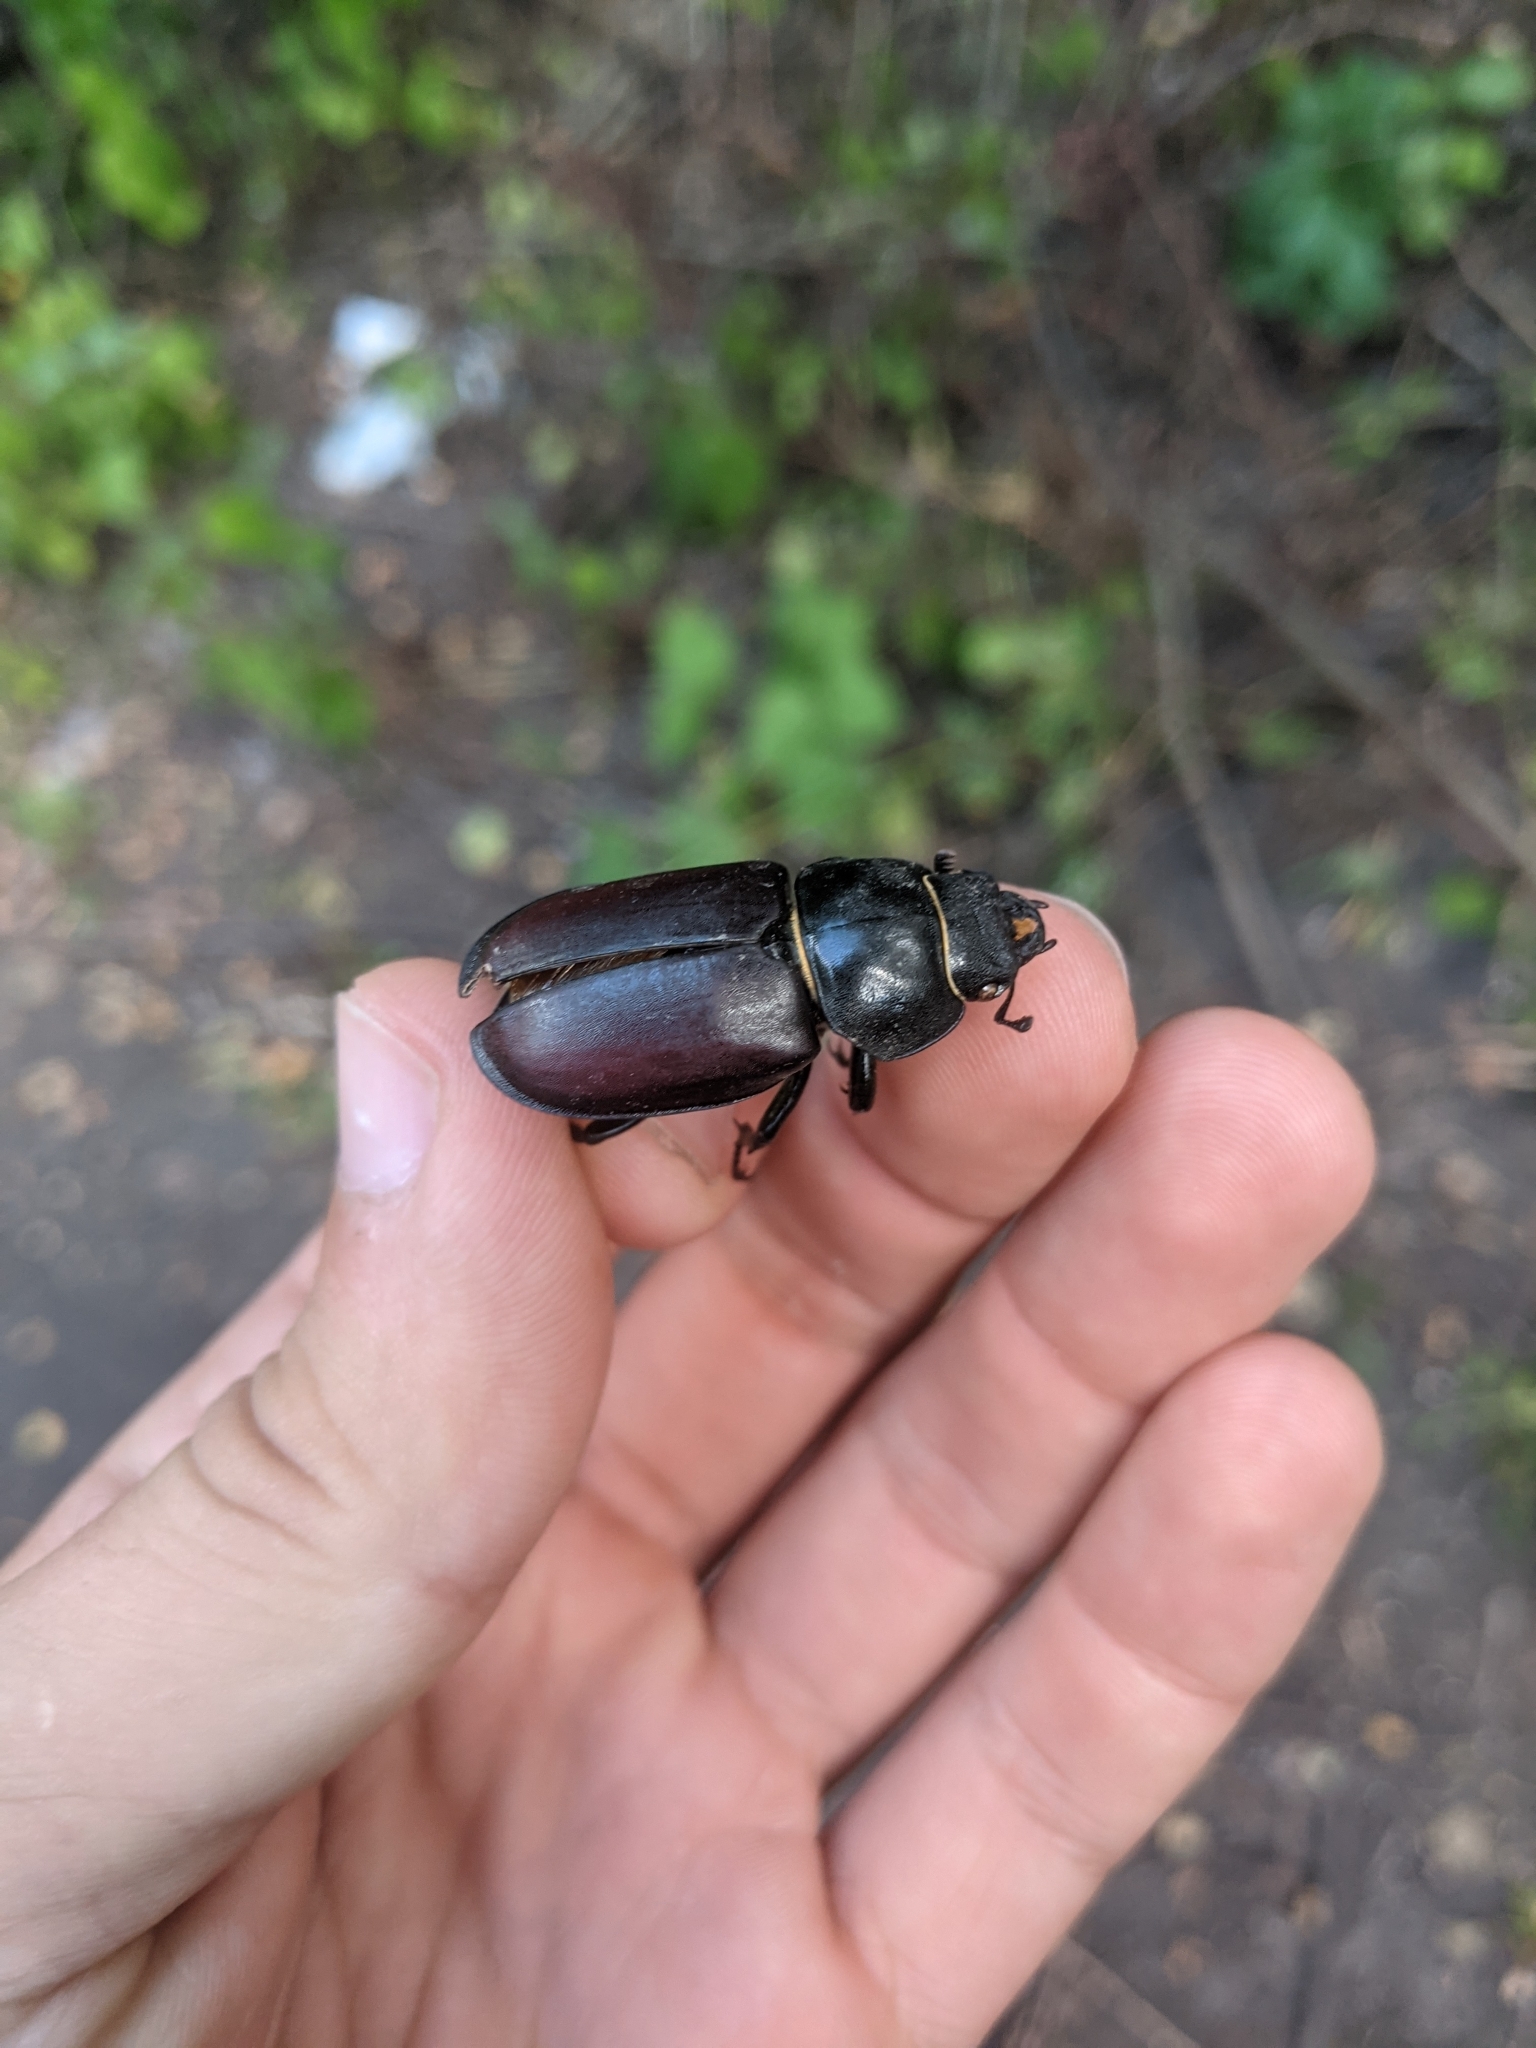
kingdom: Animalia
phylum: Arthropoda
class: Insecta
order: Coleoptera
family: Lucanidae
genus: Lucanus
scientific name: Lucanus cervus
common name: Stag beetle
